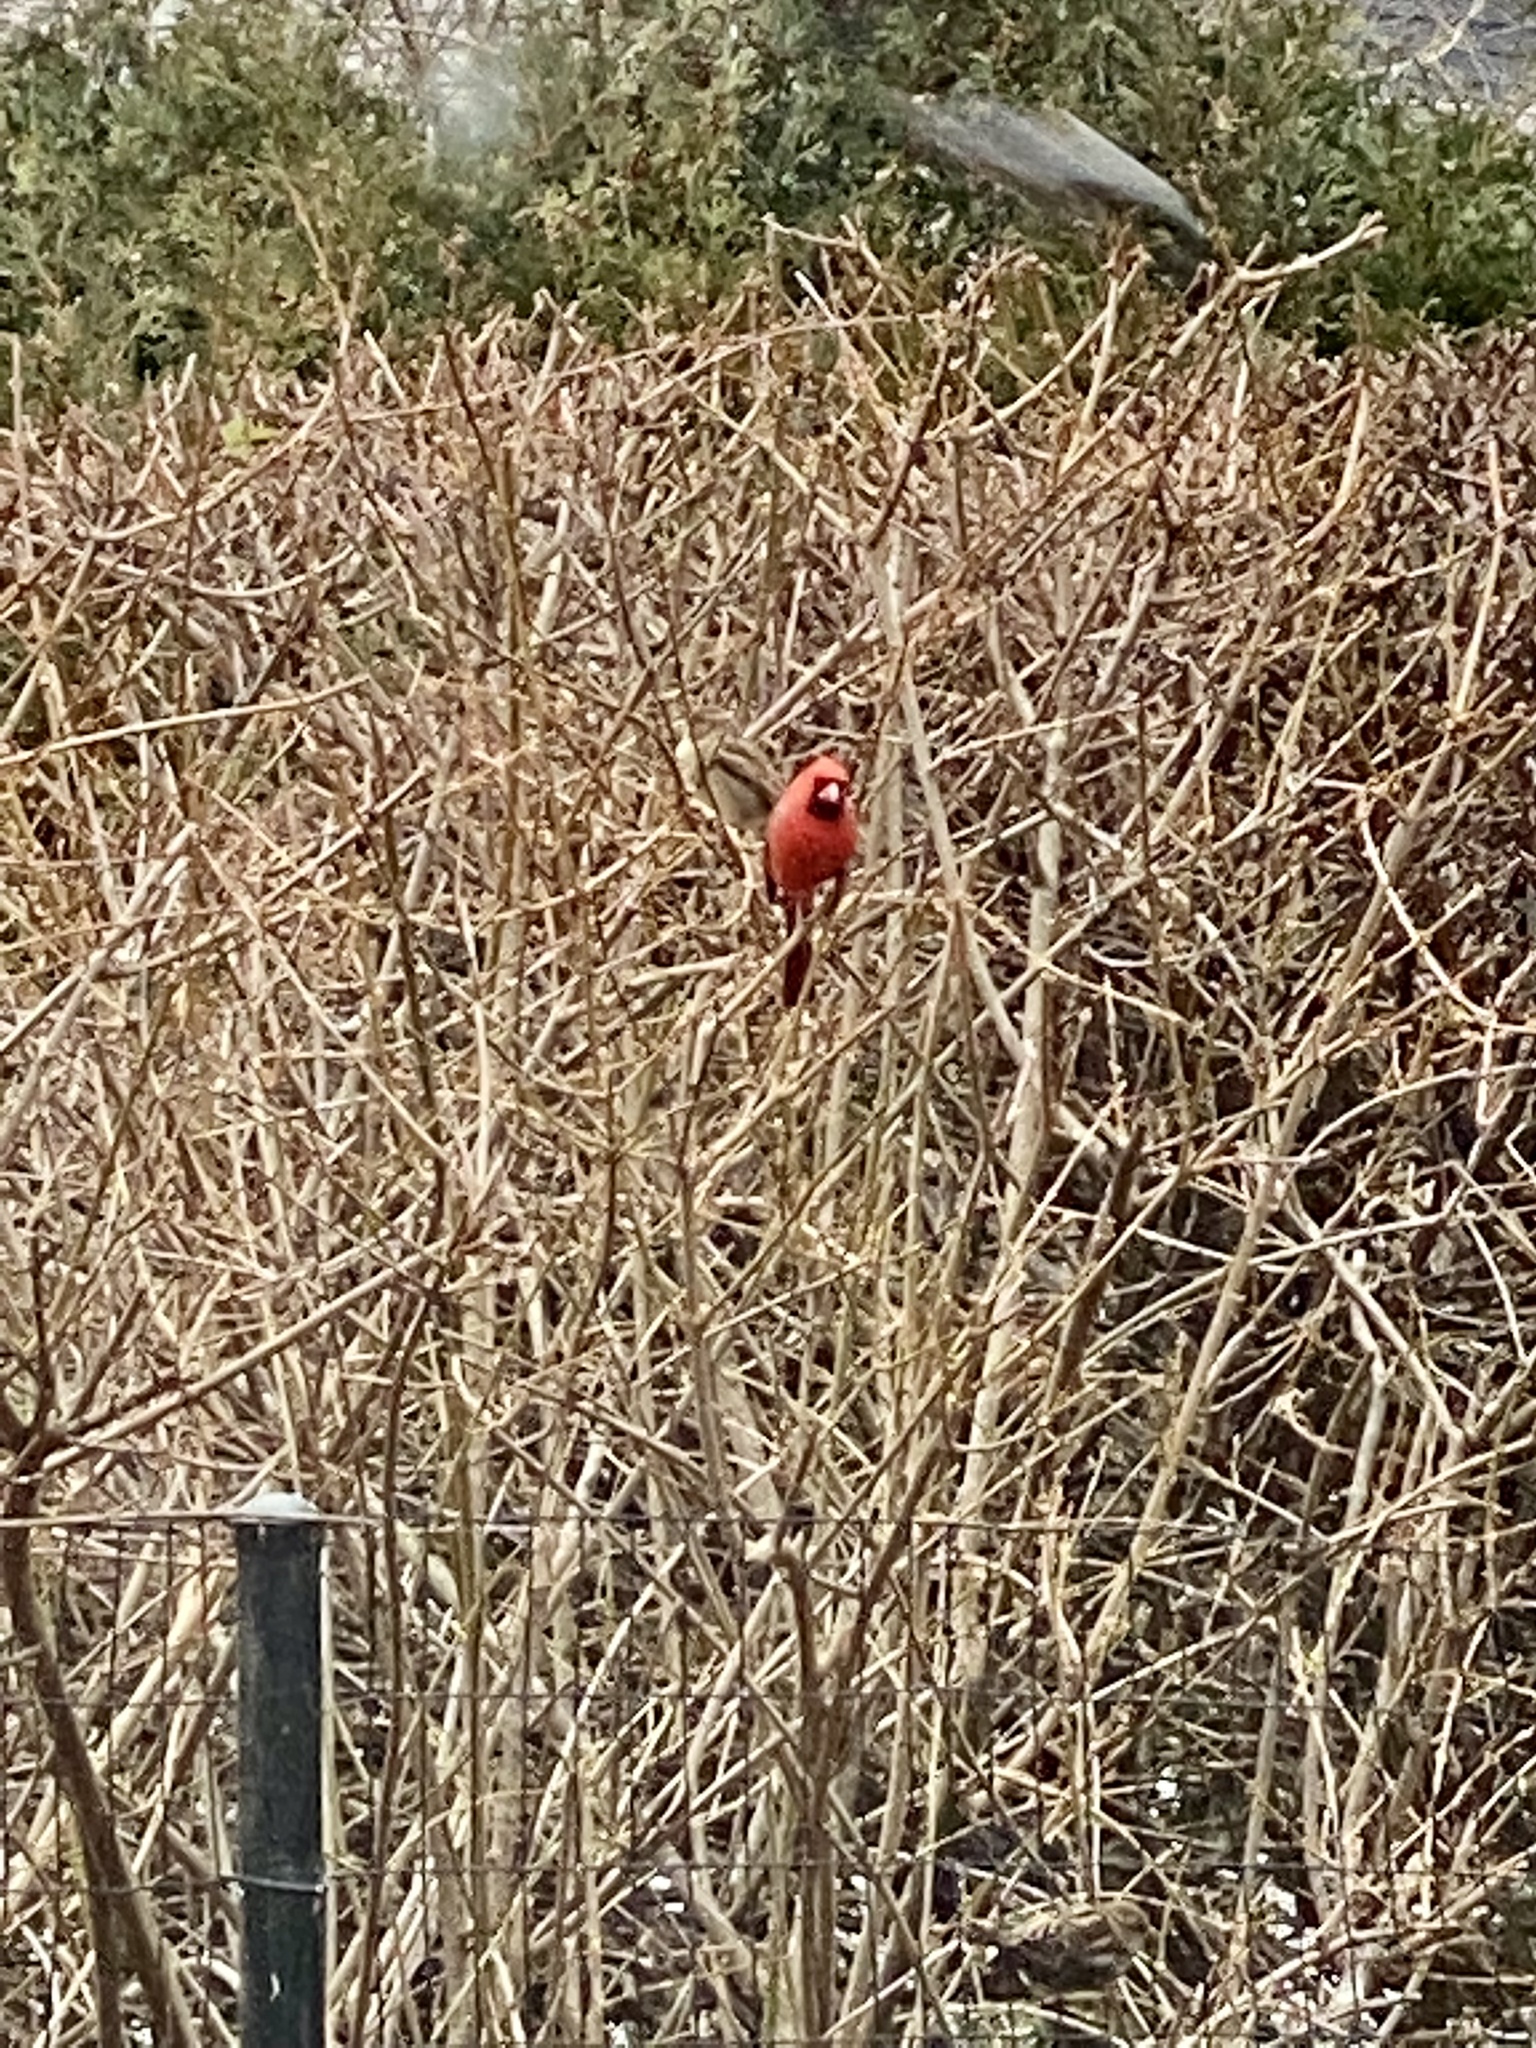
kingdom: Animalia
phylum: Chordata
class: Aves
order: Passeriformes
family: Cardinalidae
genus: Cardinalis
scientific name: Cardinalis cardinalis
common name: Northern cardinal
